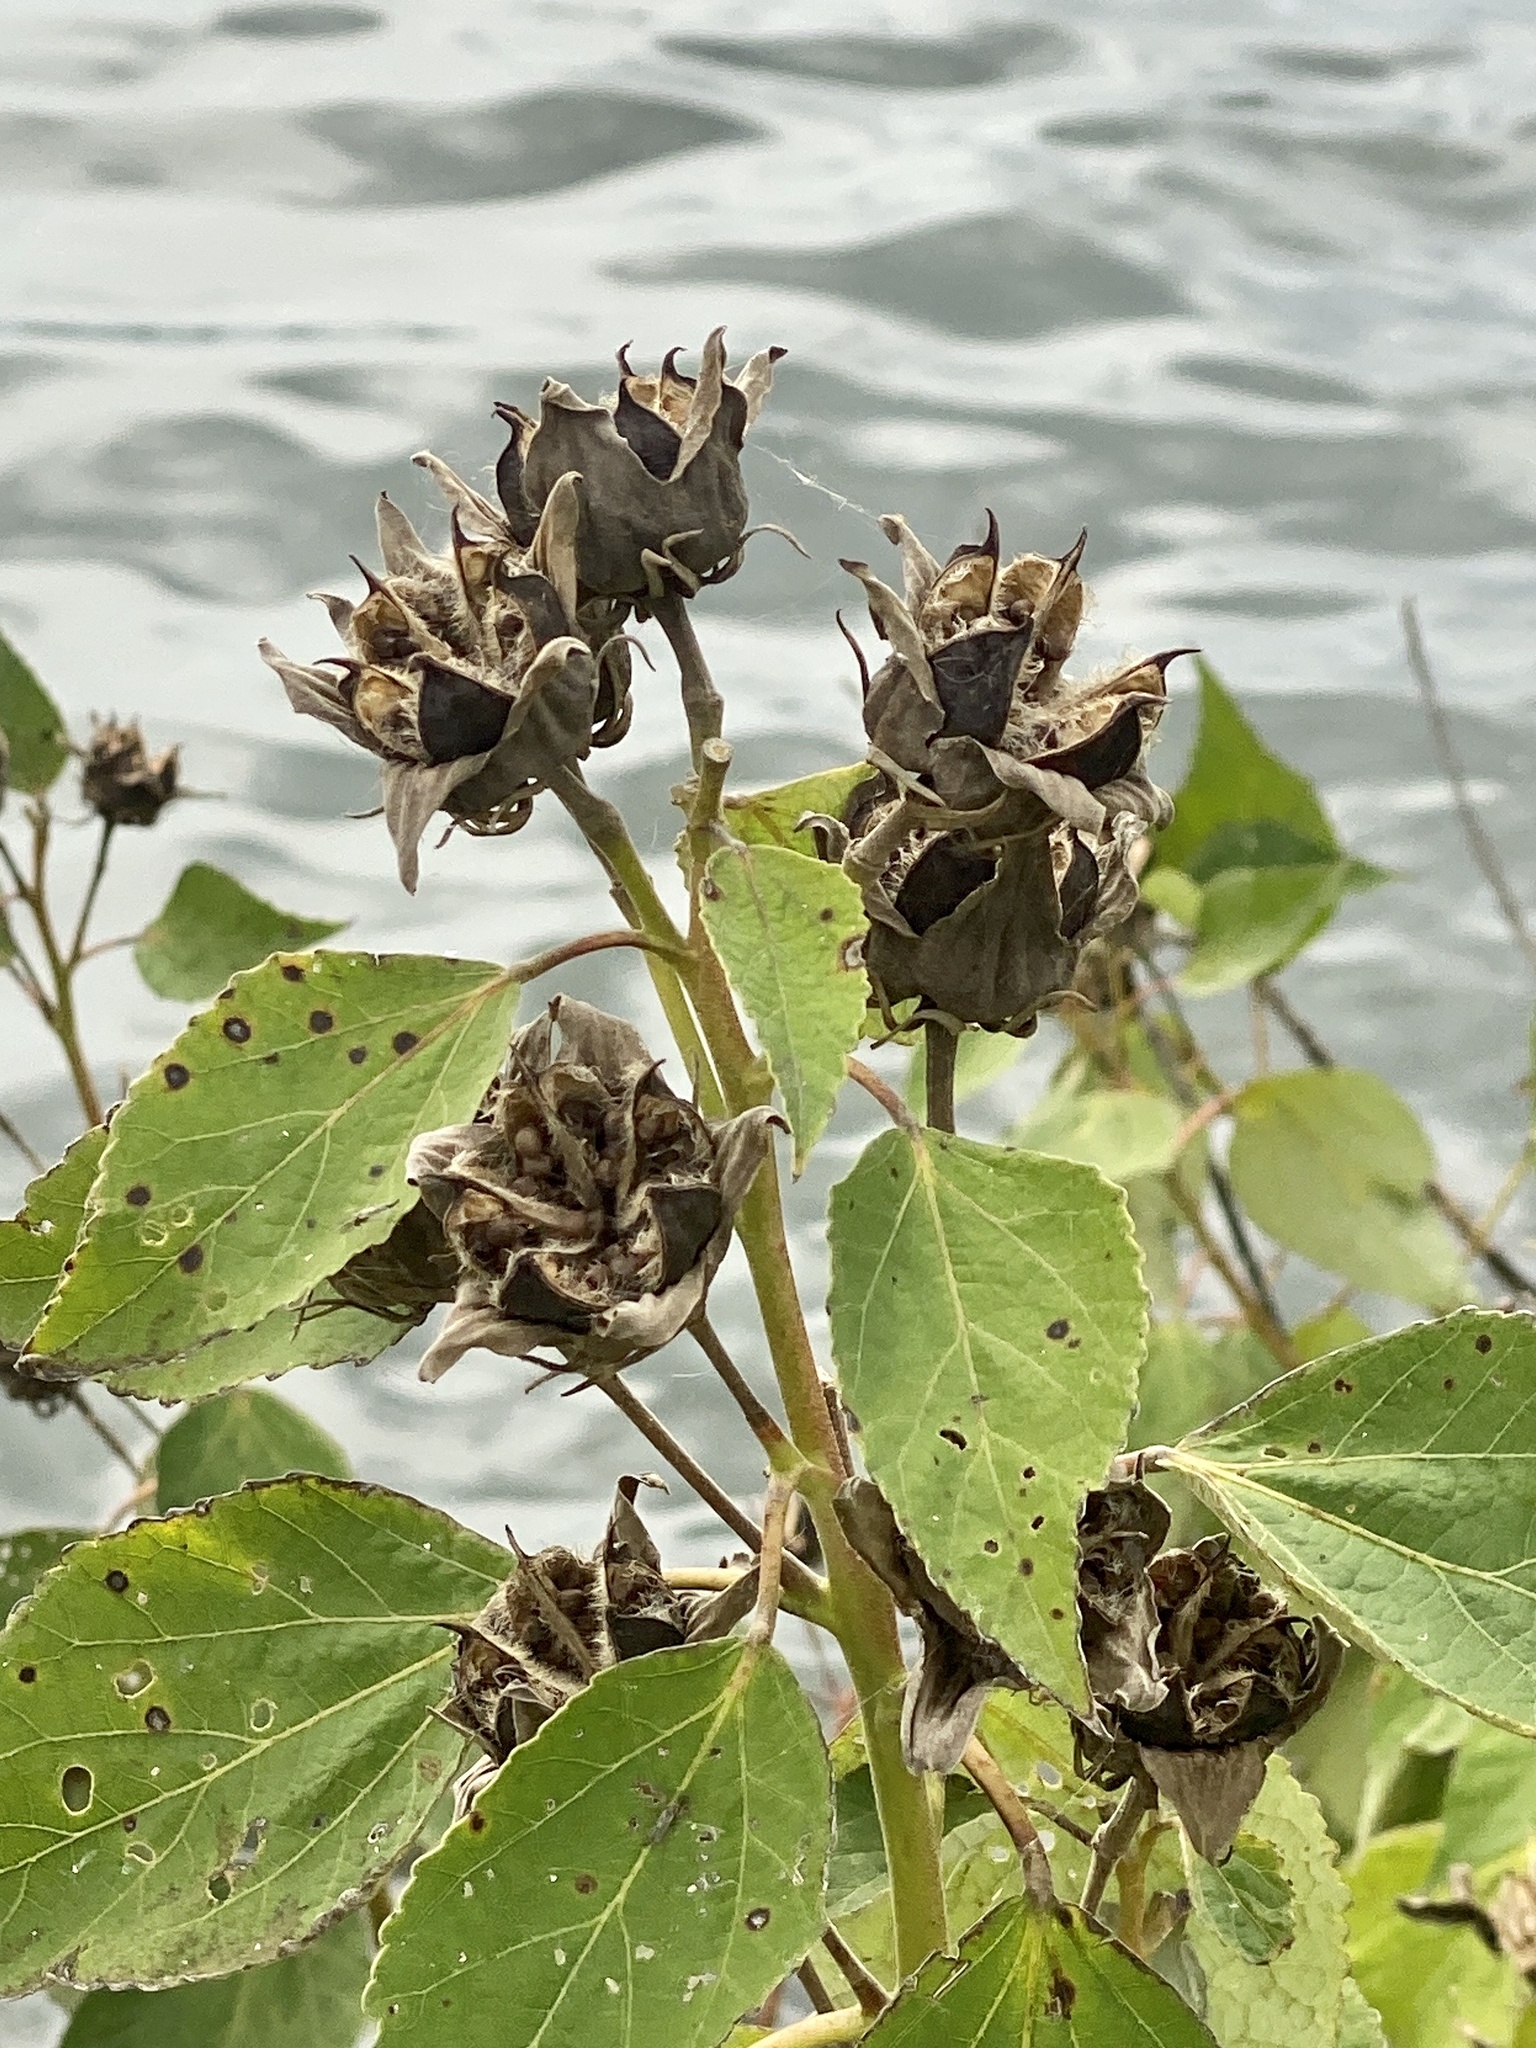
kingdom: Plantae
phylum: Tracheophyta
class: Magnoliopsida
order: Malvales
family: Malvaceae
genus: Hibiscus
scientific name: Hibiscus moscheutos
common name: Common rose-mallow
